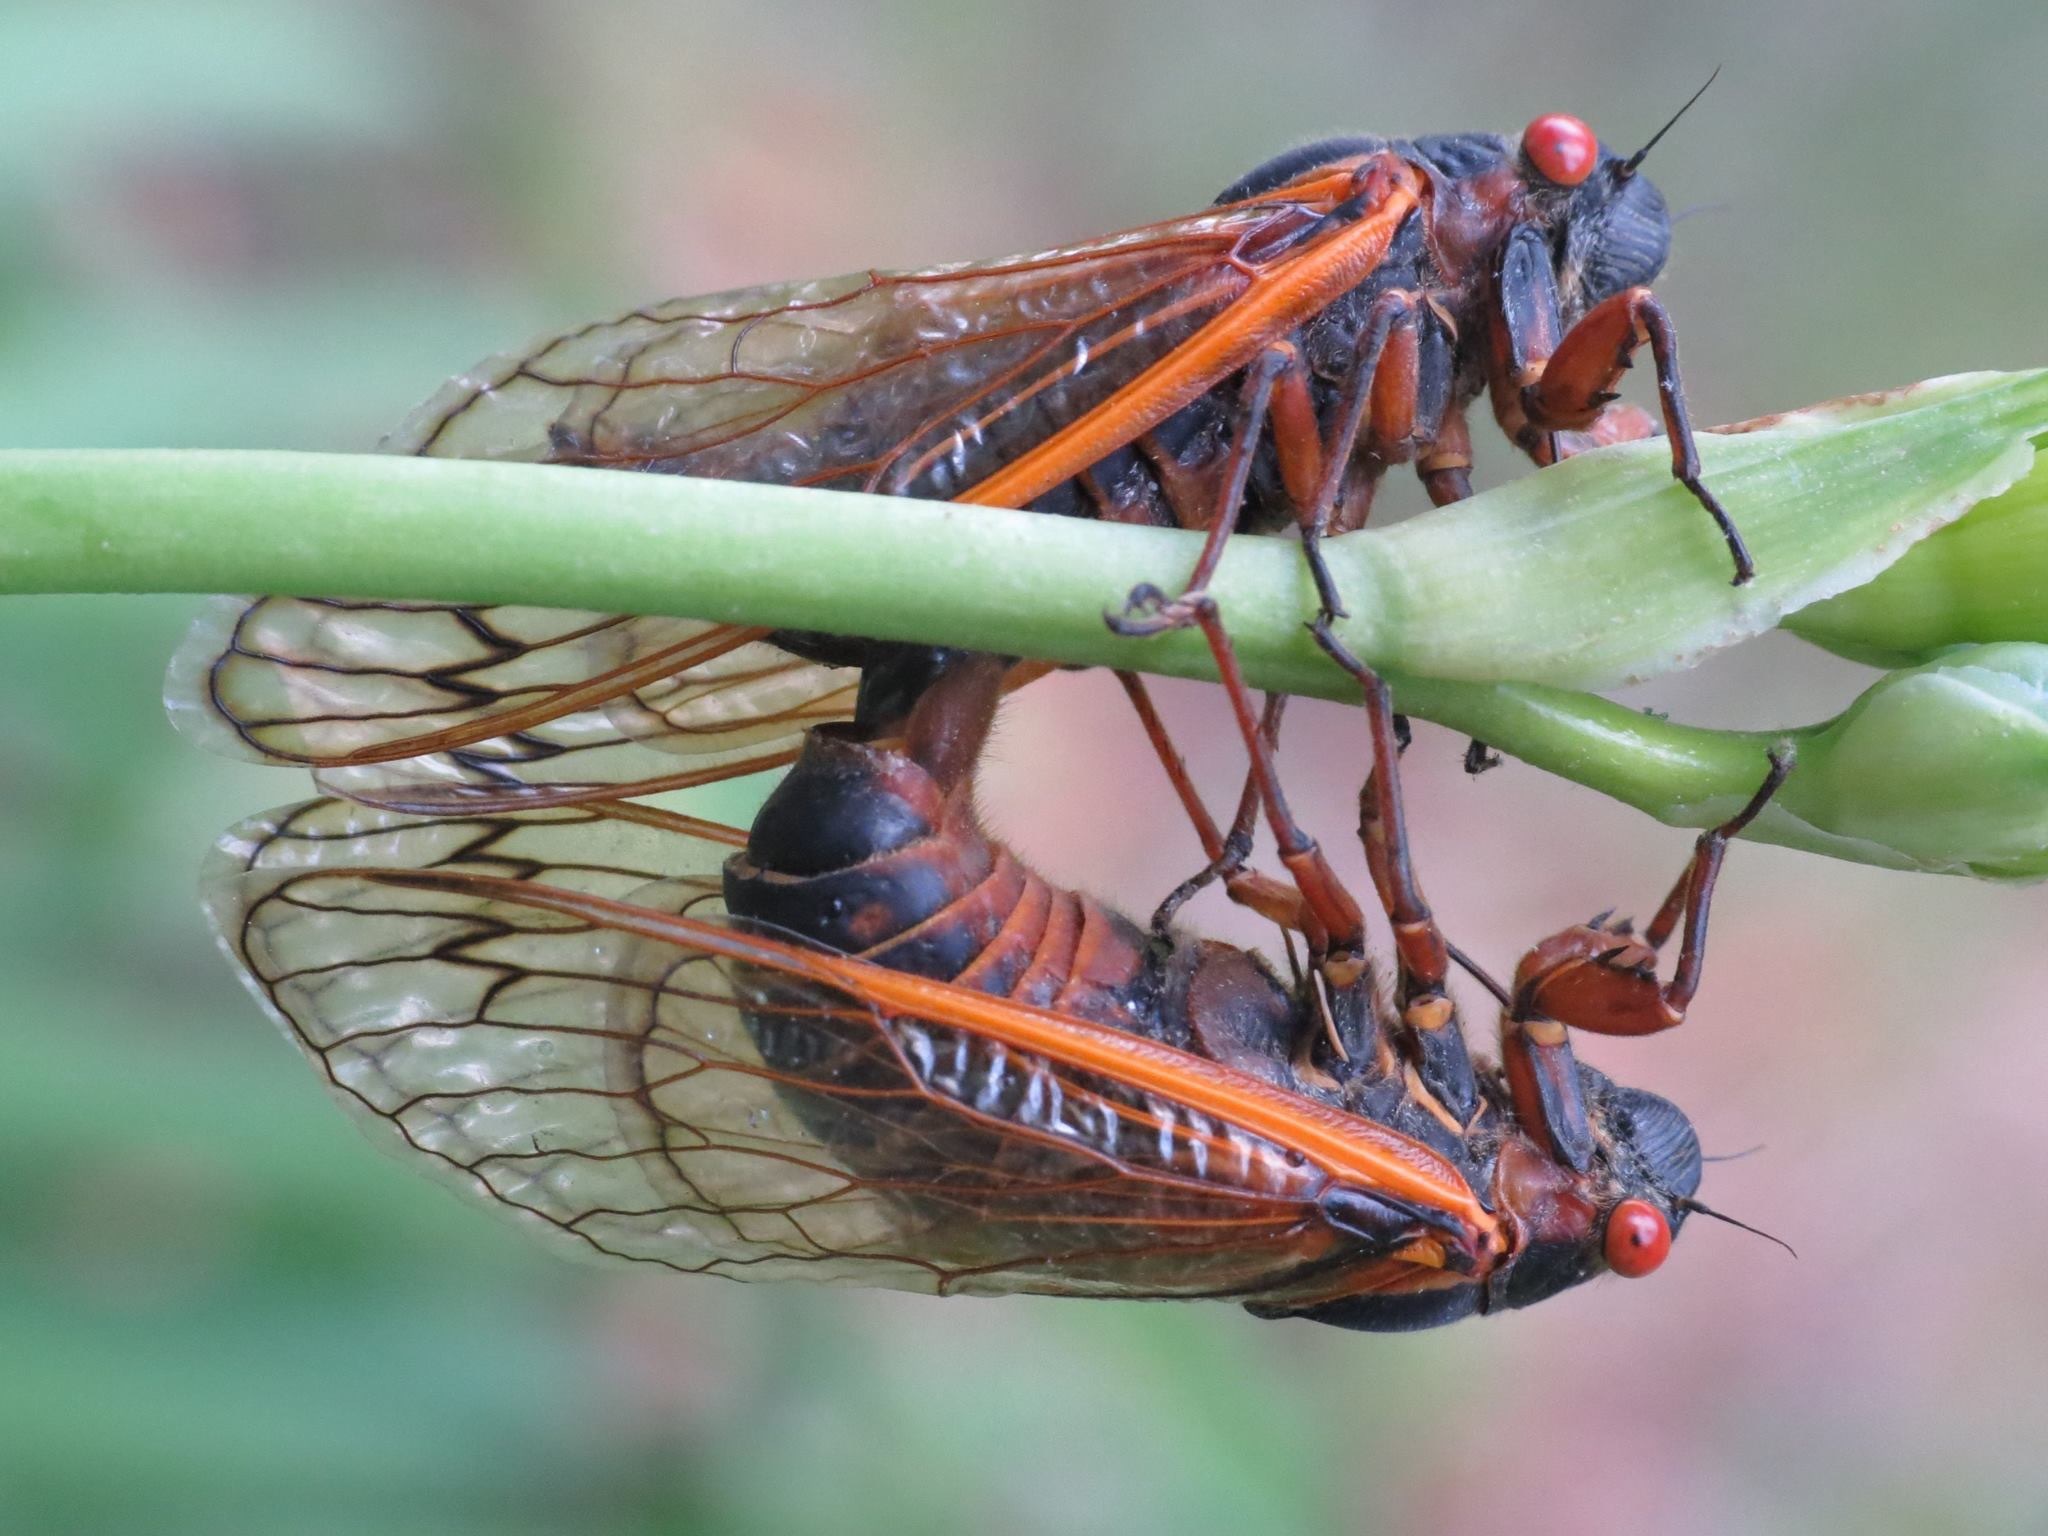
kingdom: Animalia
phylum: Arthropoda
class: Insecta
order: Hemiptera
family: Cicadidae
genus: Magicicada
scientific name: Magicicada septendecim
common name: Periodical cicada
